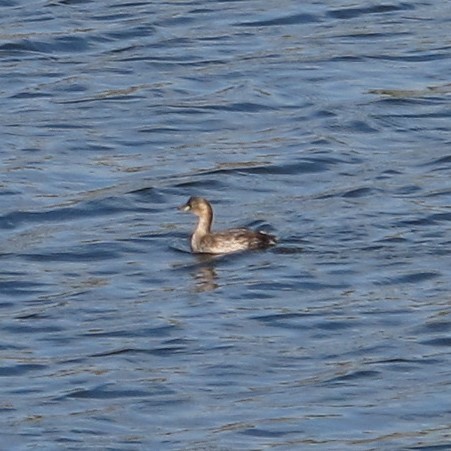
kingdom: Animalia
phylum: Chordata
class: Aves
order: Podicipediformes
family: Podicipedidae
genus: Tachybaptus
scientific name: Tachybaptus ruficollis
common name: Little grebe
